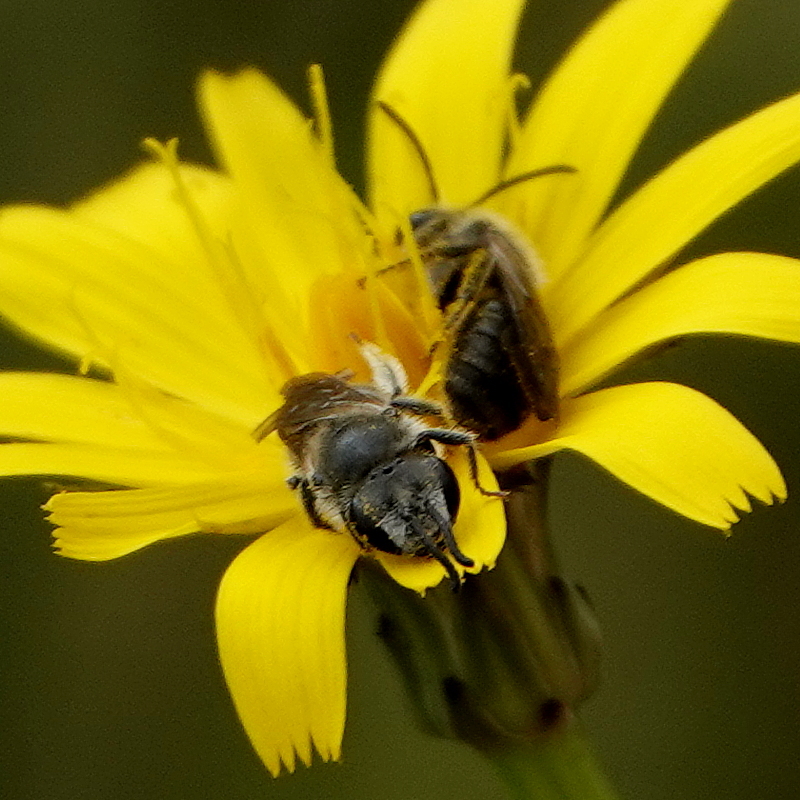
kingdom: Animalia
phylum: Arthropoda
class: Insecta
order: Hymenoptera
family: Halictidae
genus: Lasioglossum
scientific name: Lasioglossum lanarium
